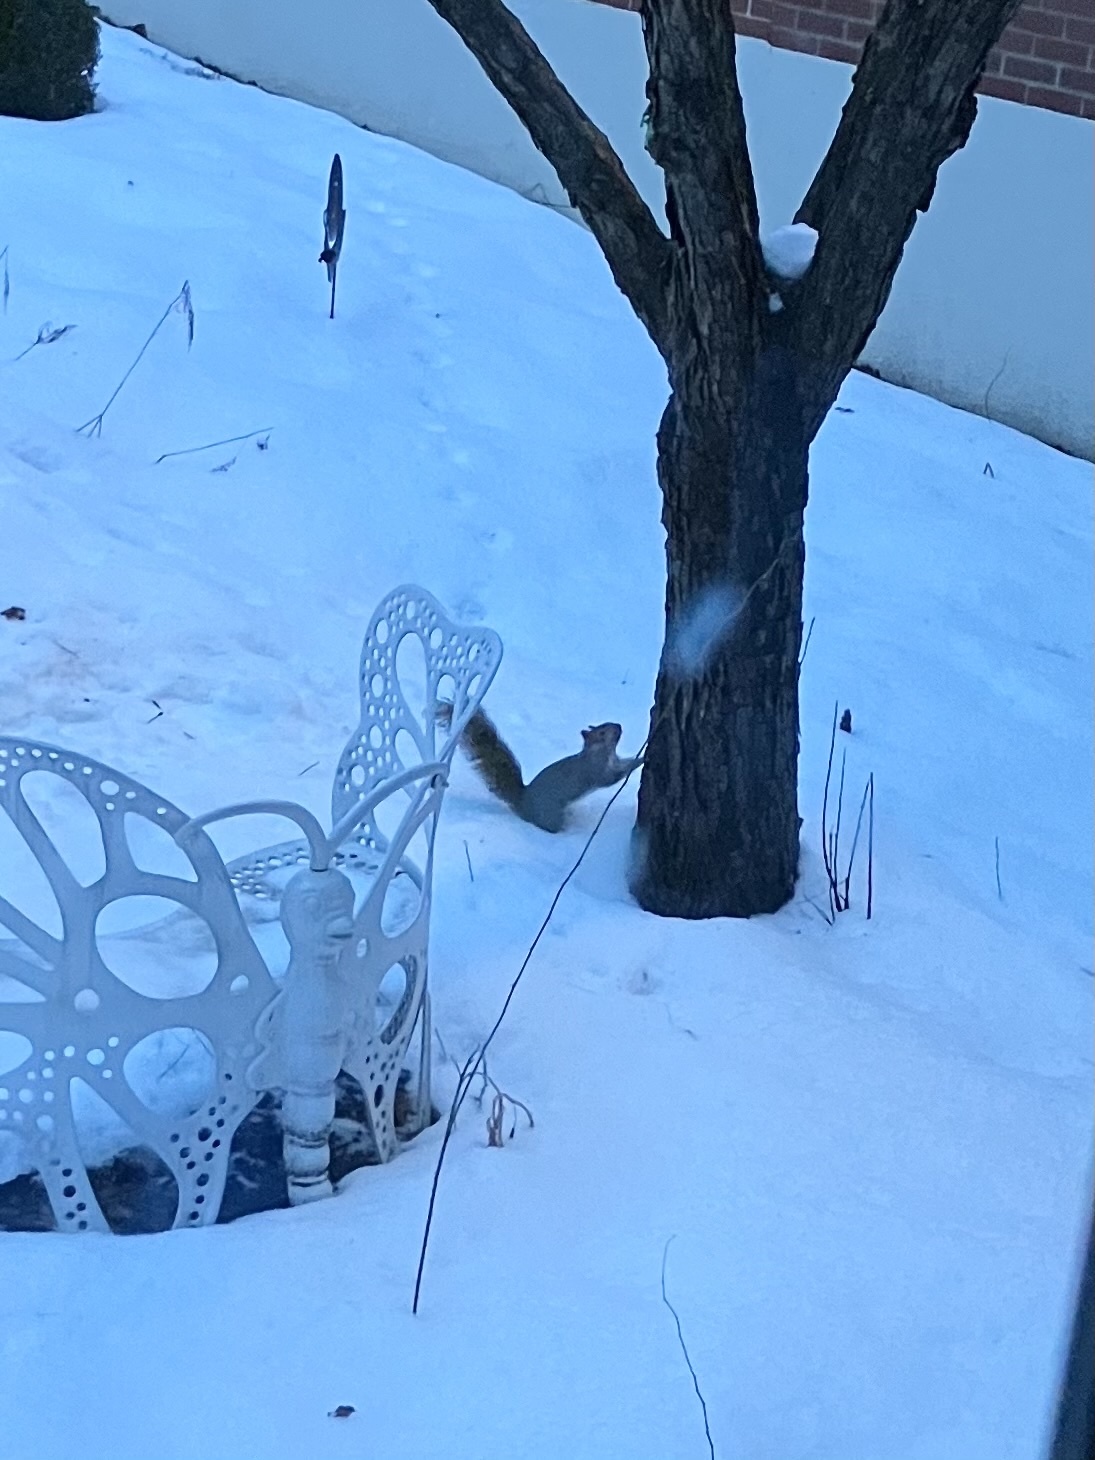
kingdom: Animalia
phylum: Chordata
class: Mammalia
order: Rodentia
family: Sciuridae
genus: Sciurus
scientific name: Sciurus carolinensis
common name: Eastern gray squirrel
